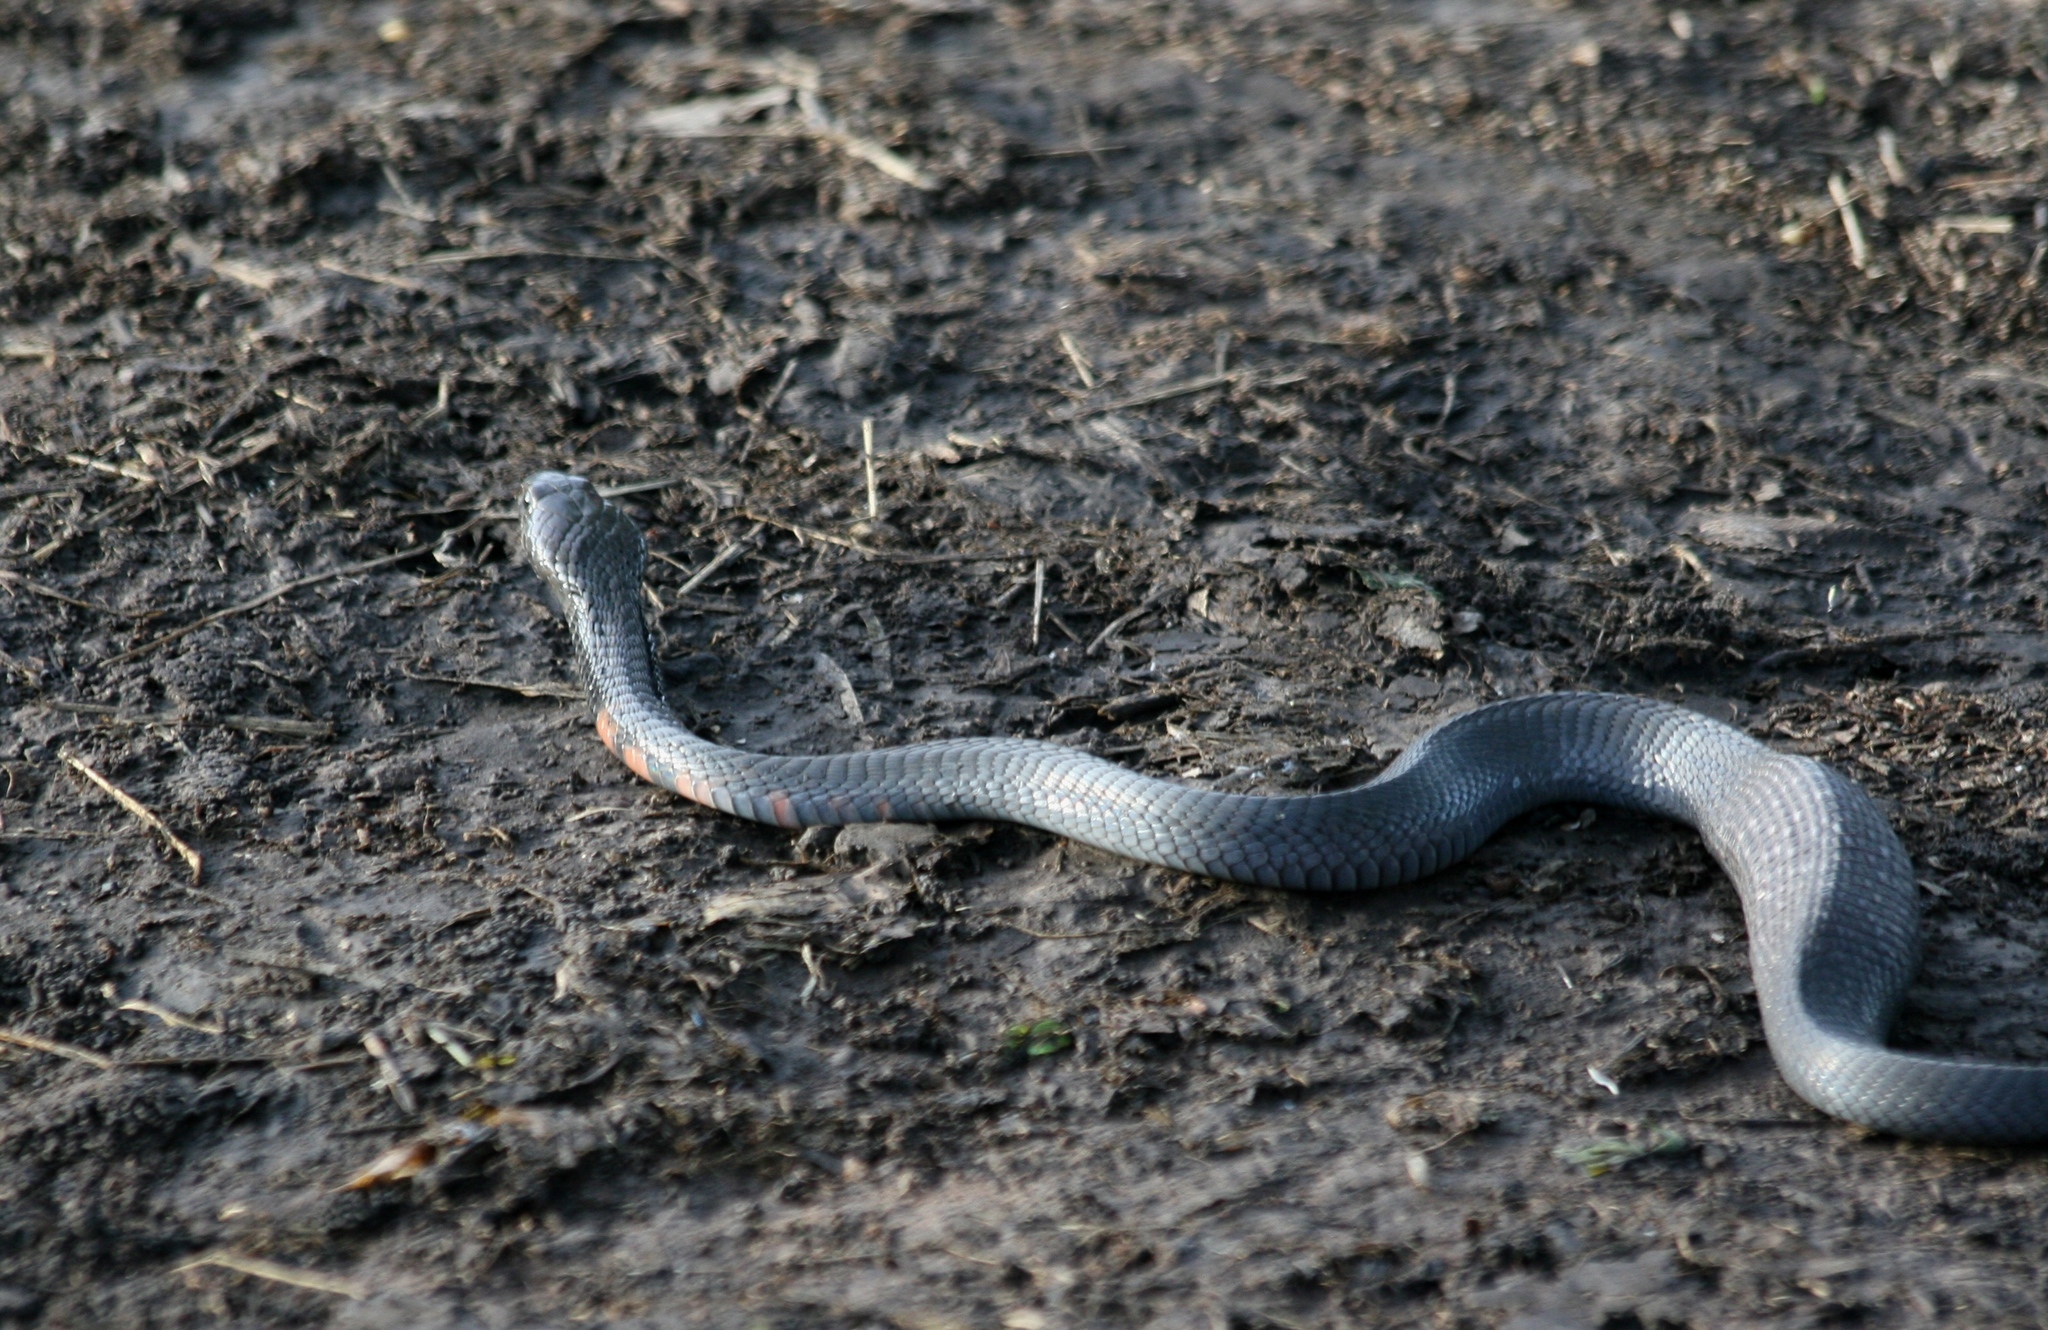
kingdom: Animalia
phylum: Chordata
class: Squamata
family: Elapidae
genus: Naja
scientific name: Naja nigricollis
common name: Black-necked spitting cobra
